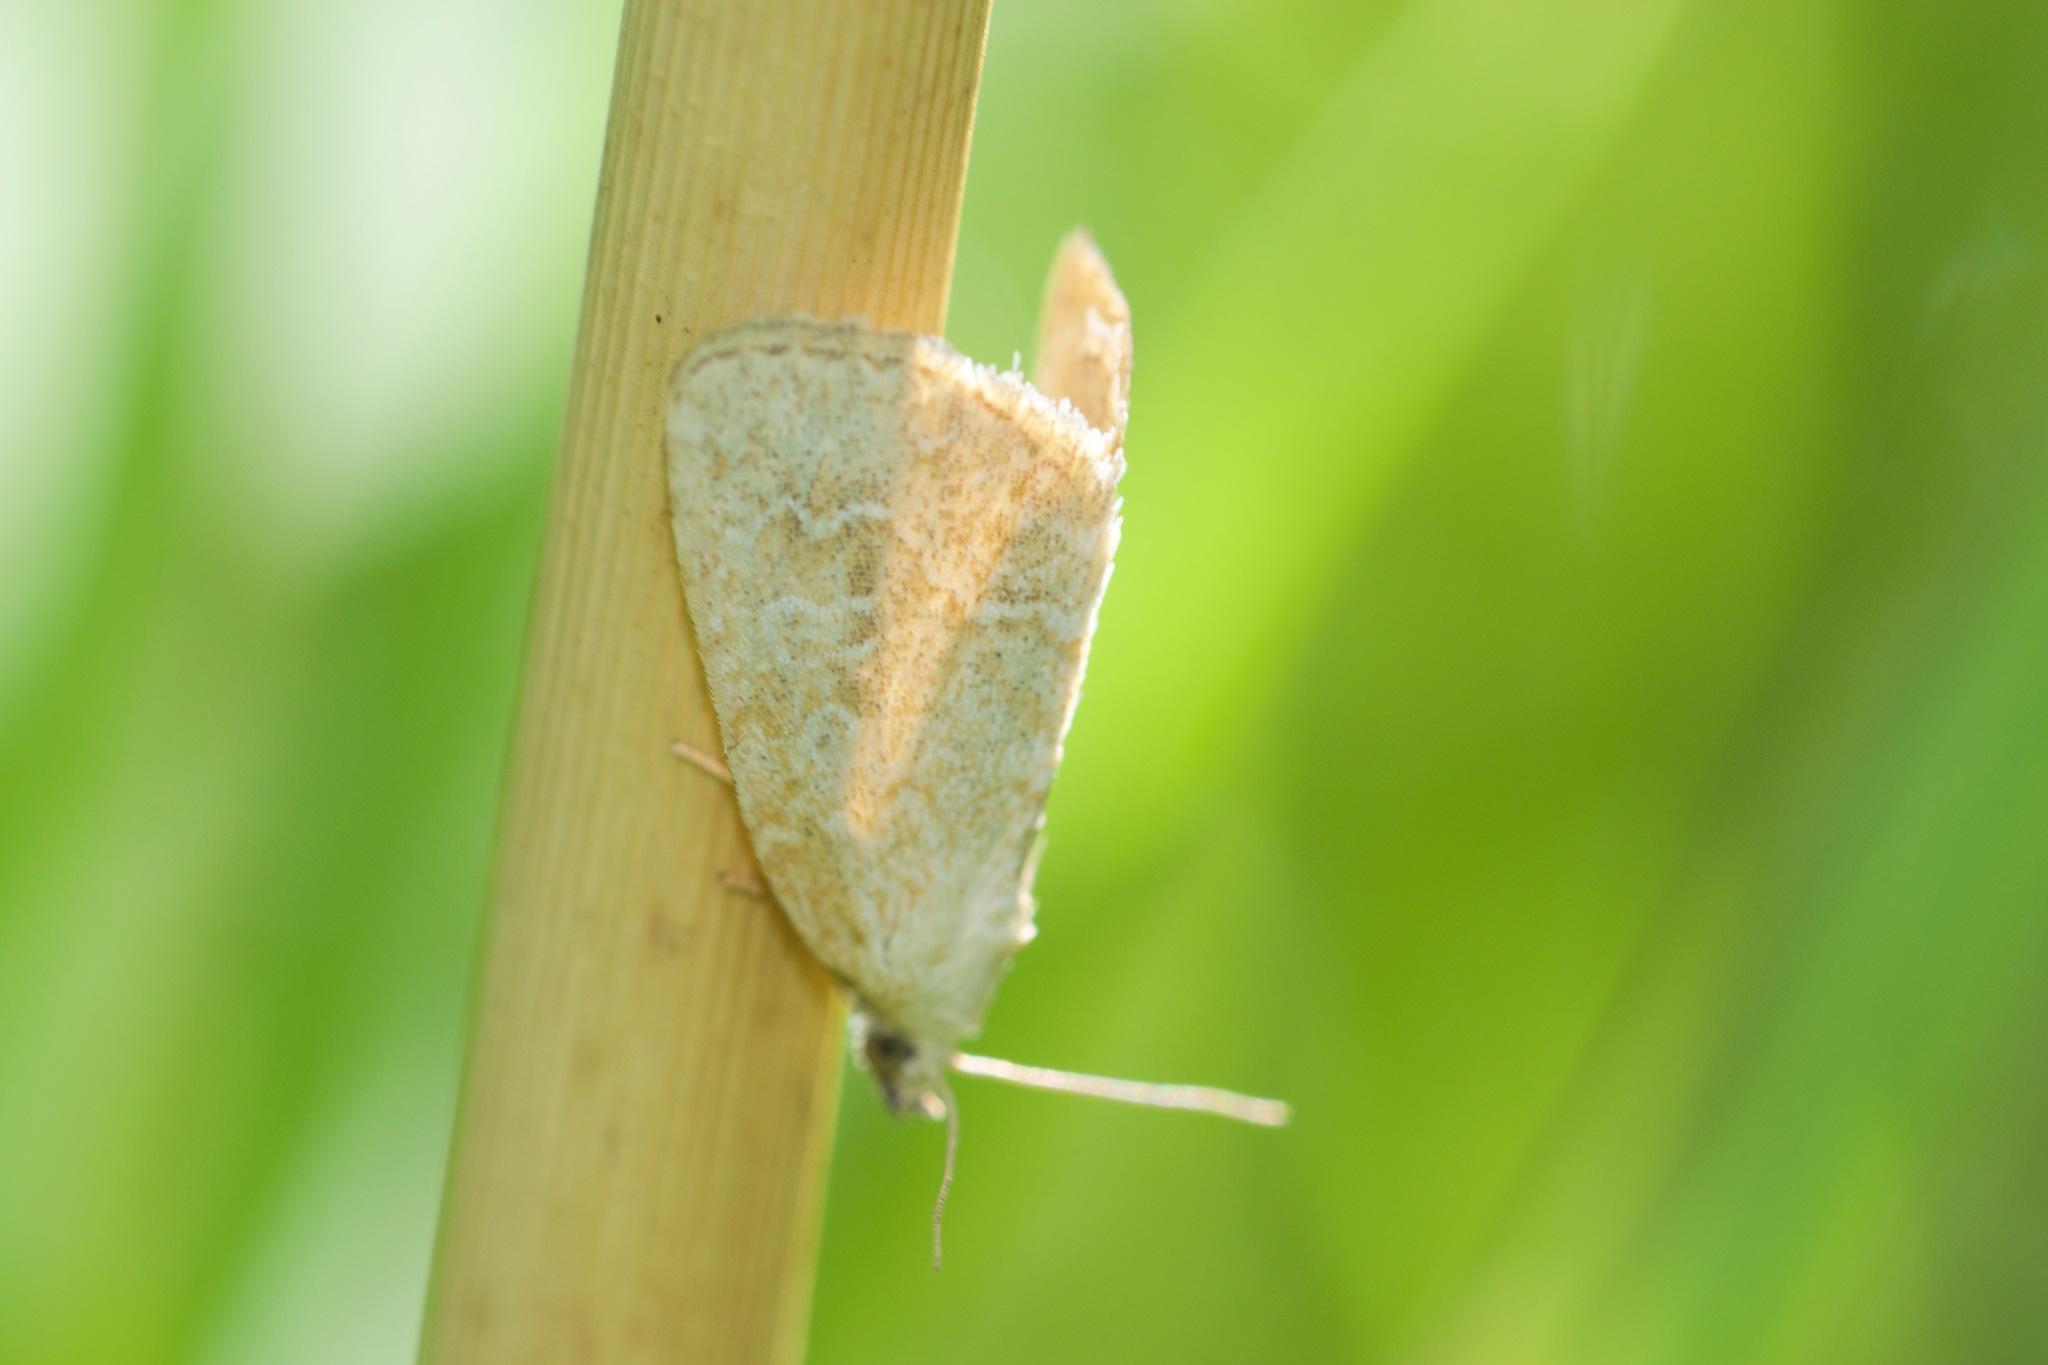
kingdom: Animalia
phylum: Arthropoda
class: Insecta
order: Lepidoptera
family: Noctuidae
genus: Protodeltote
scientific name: Protodeltote albidula
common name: Pale glyph
